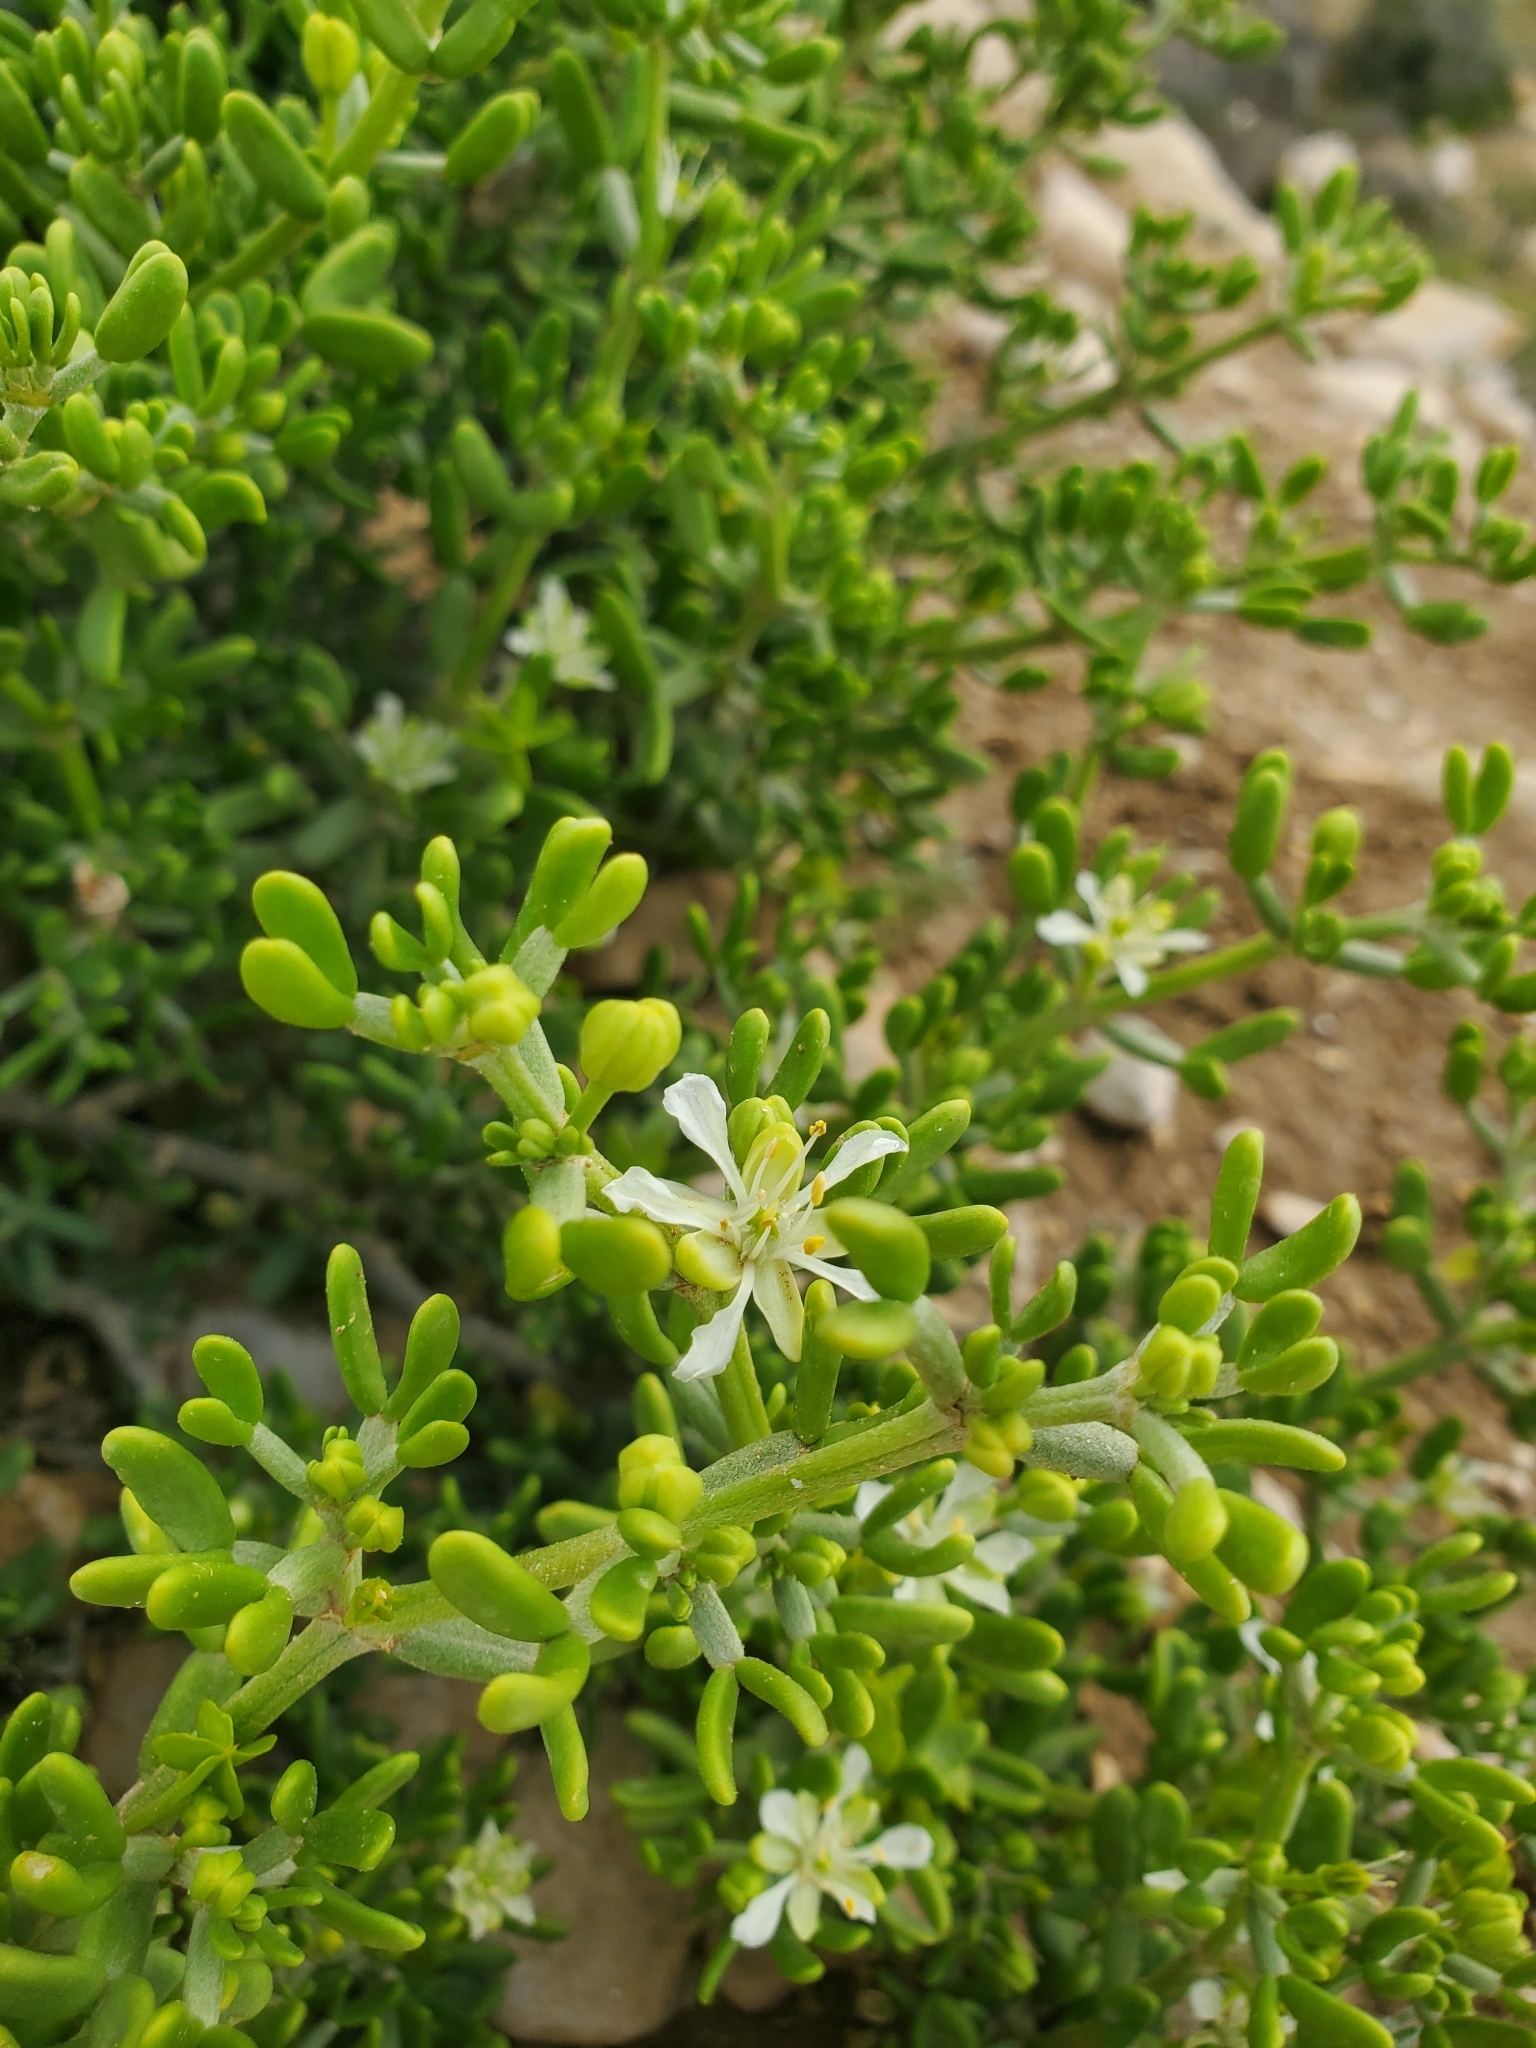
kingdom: Plantae
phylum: Tracheophyta
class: Magnoliopsida
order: Zygophyllales
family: Zygophyllaceae
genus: Tetraena
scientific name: Tetraena dumosa
